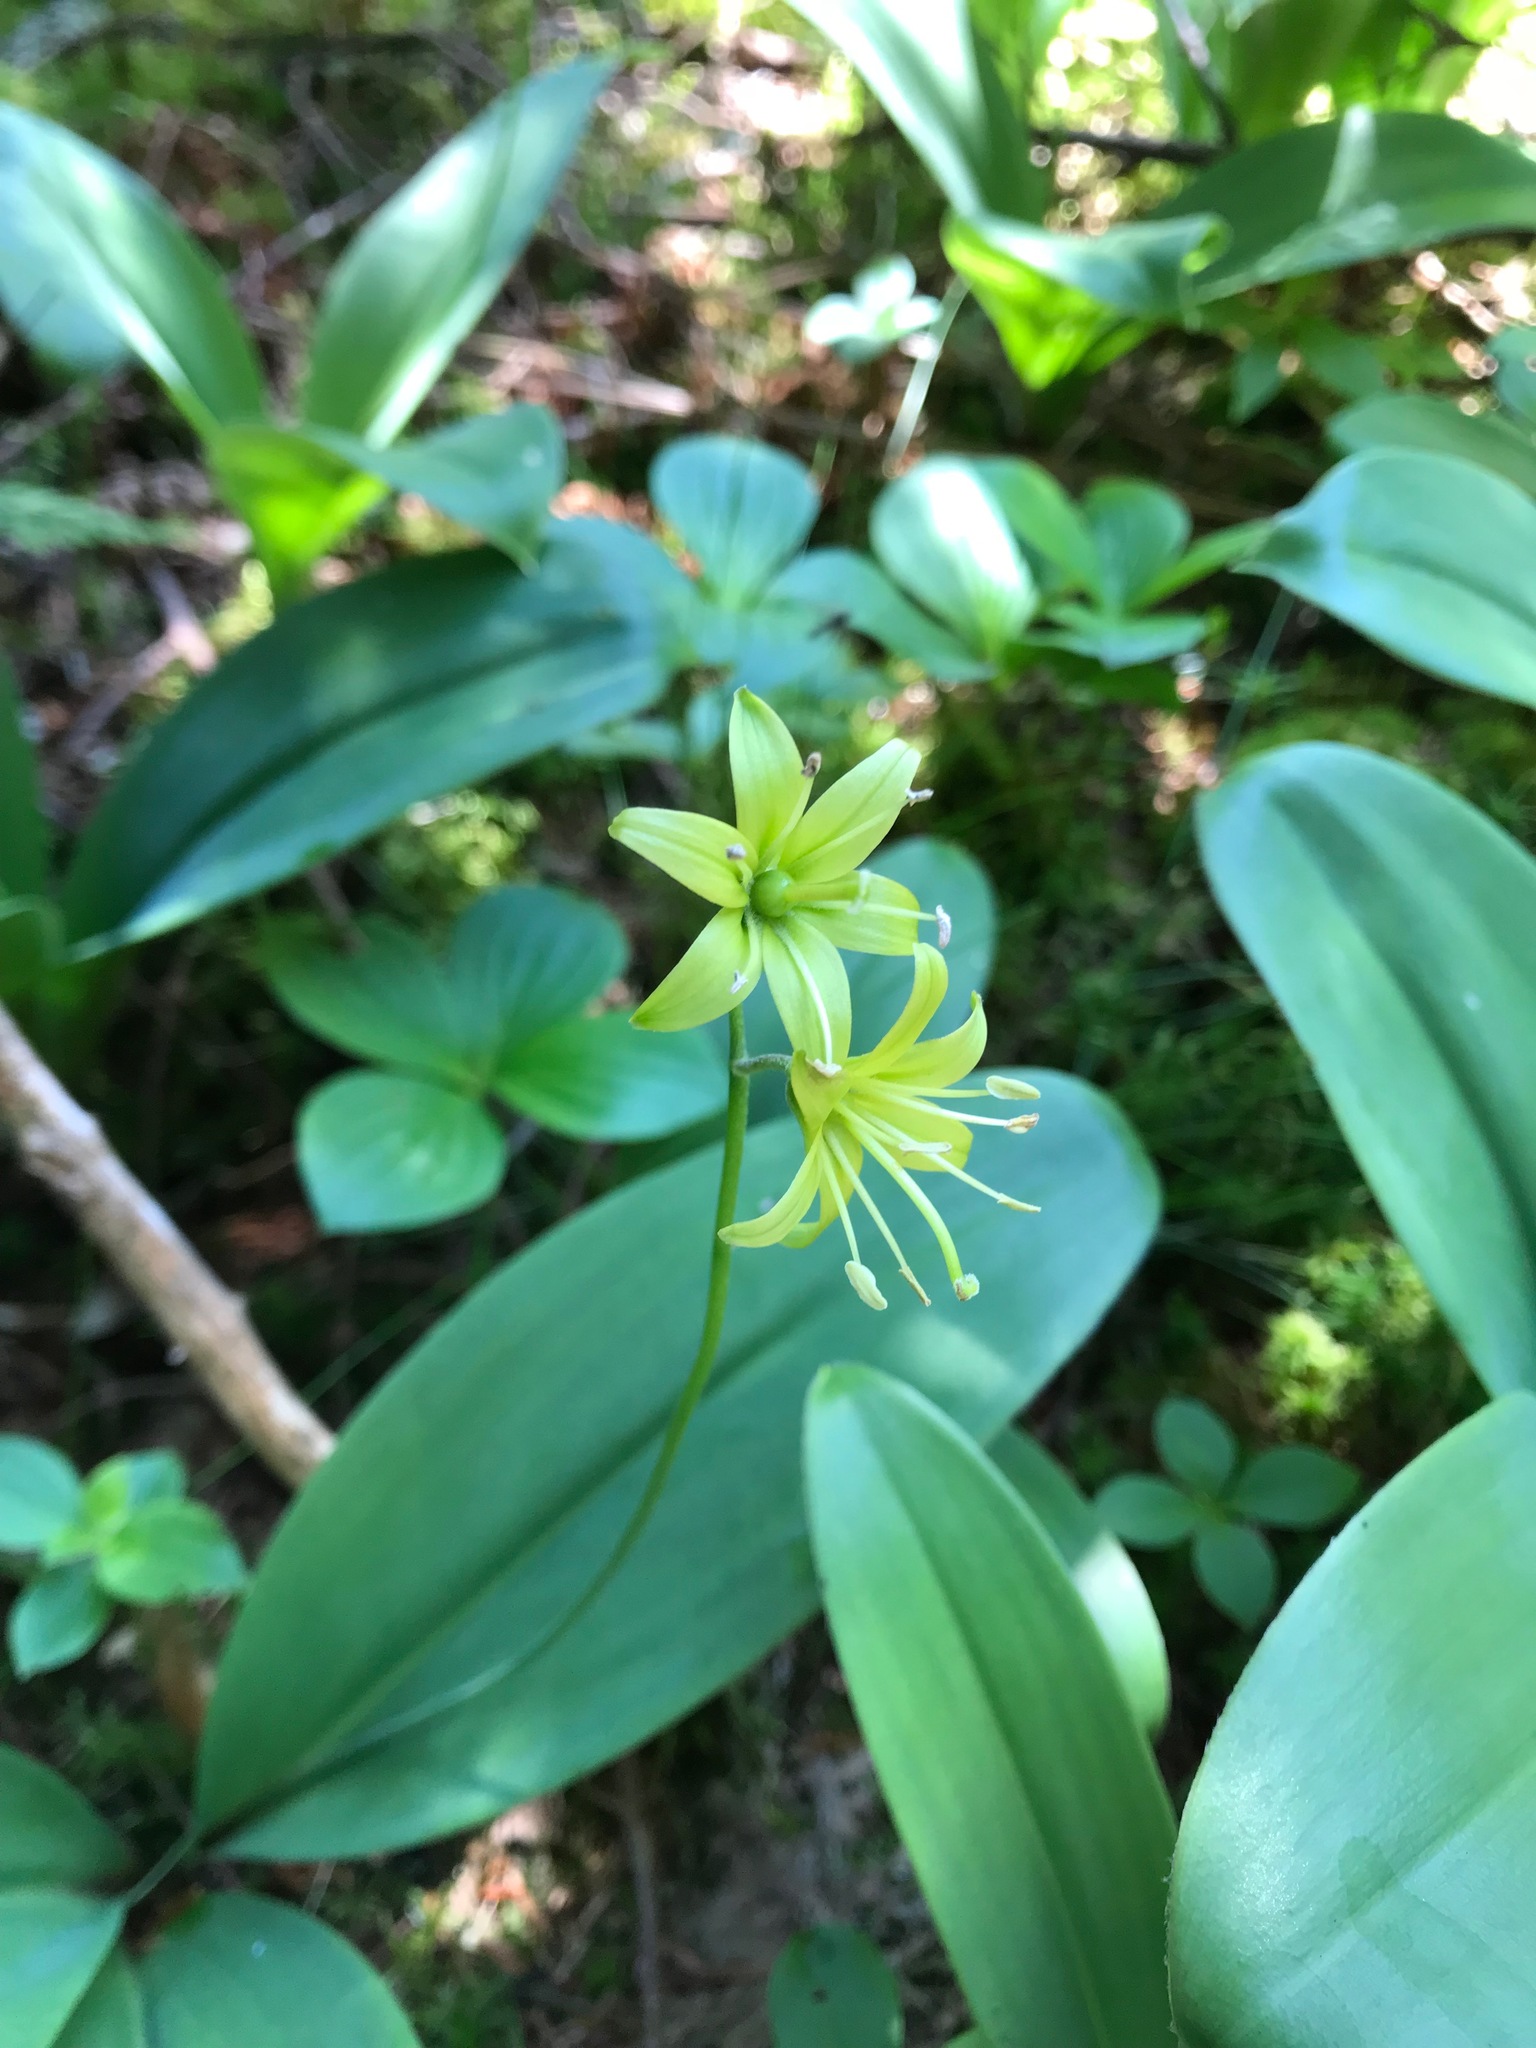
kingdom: Plantae
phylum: Tracheophyta
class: Liliopsida
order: Liliales
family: Liliaceae
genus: Clintonia
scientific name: Clintonia borealis
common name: Yellow clintonia
